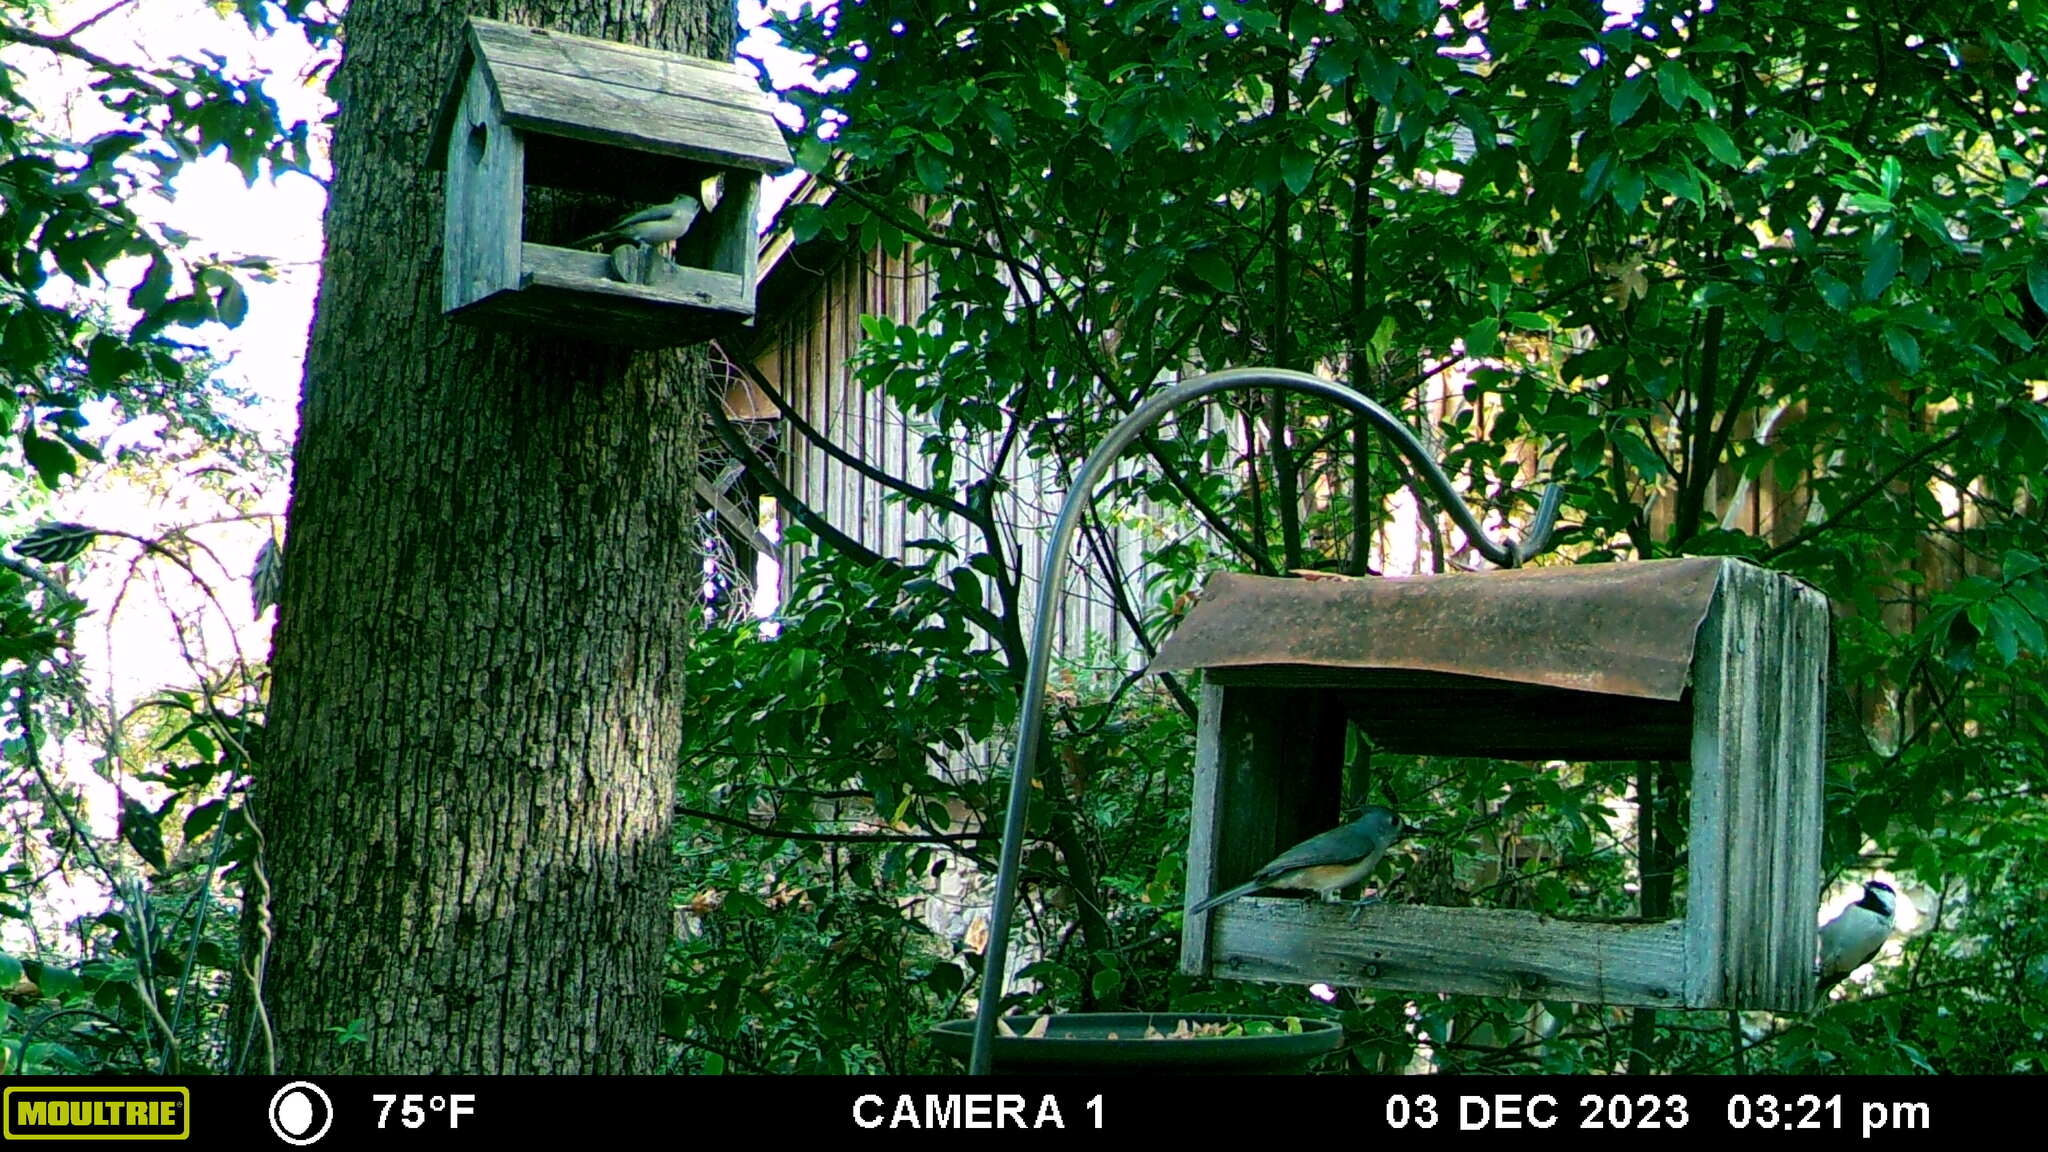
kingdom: Animalia
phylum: Chordata
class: Aves
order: Passeriformes
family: Paridae
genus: Poecile
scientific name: Poecile carolinensis
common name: Carolina chickadee
